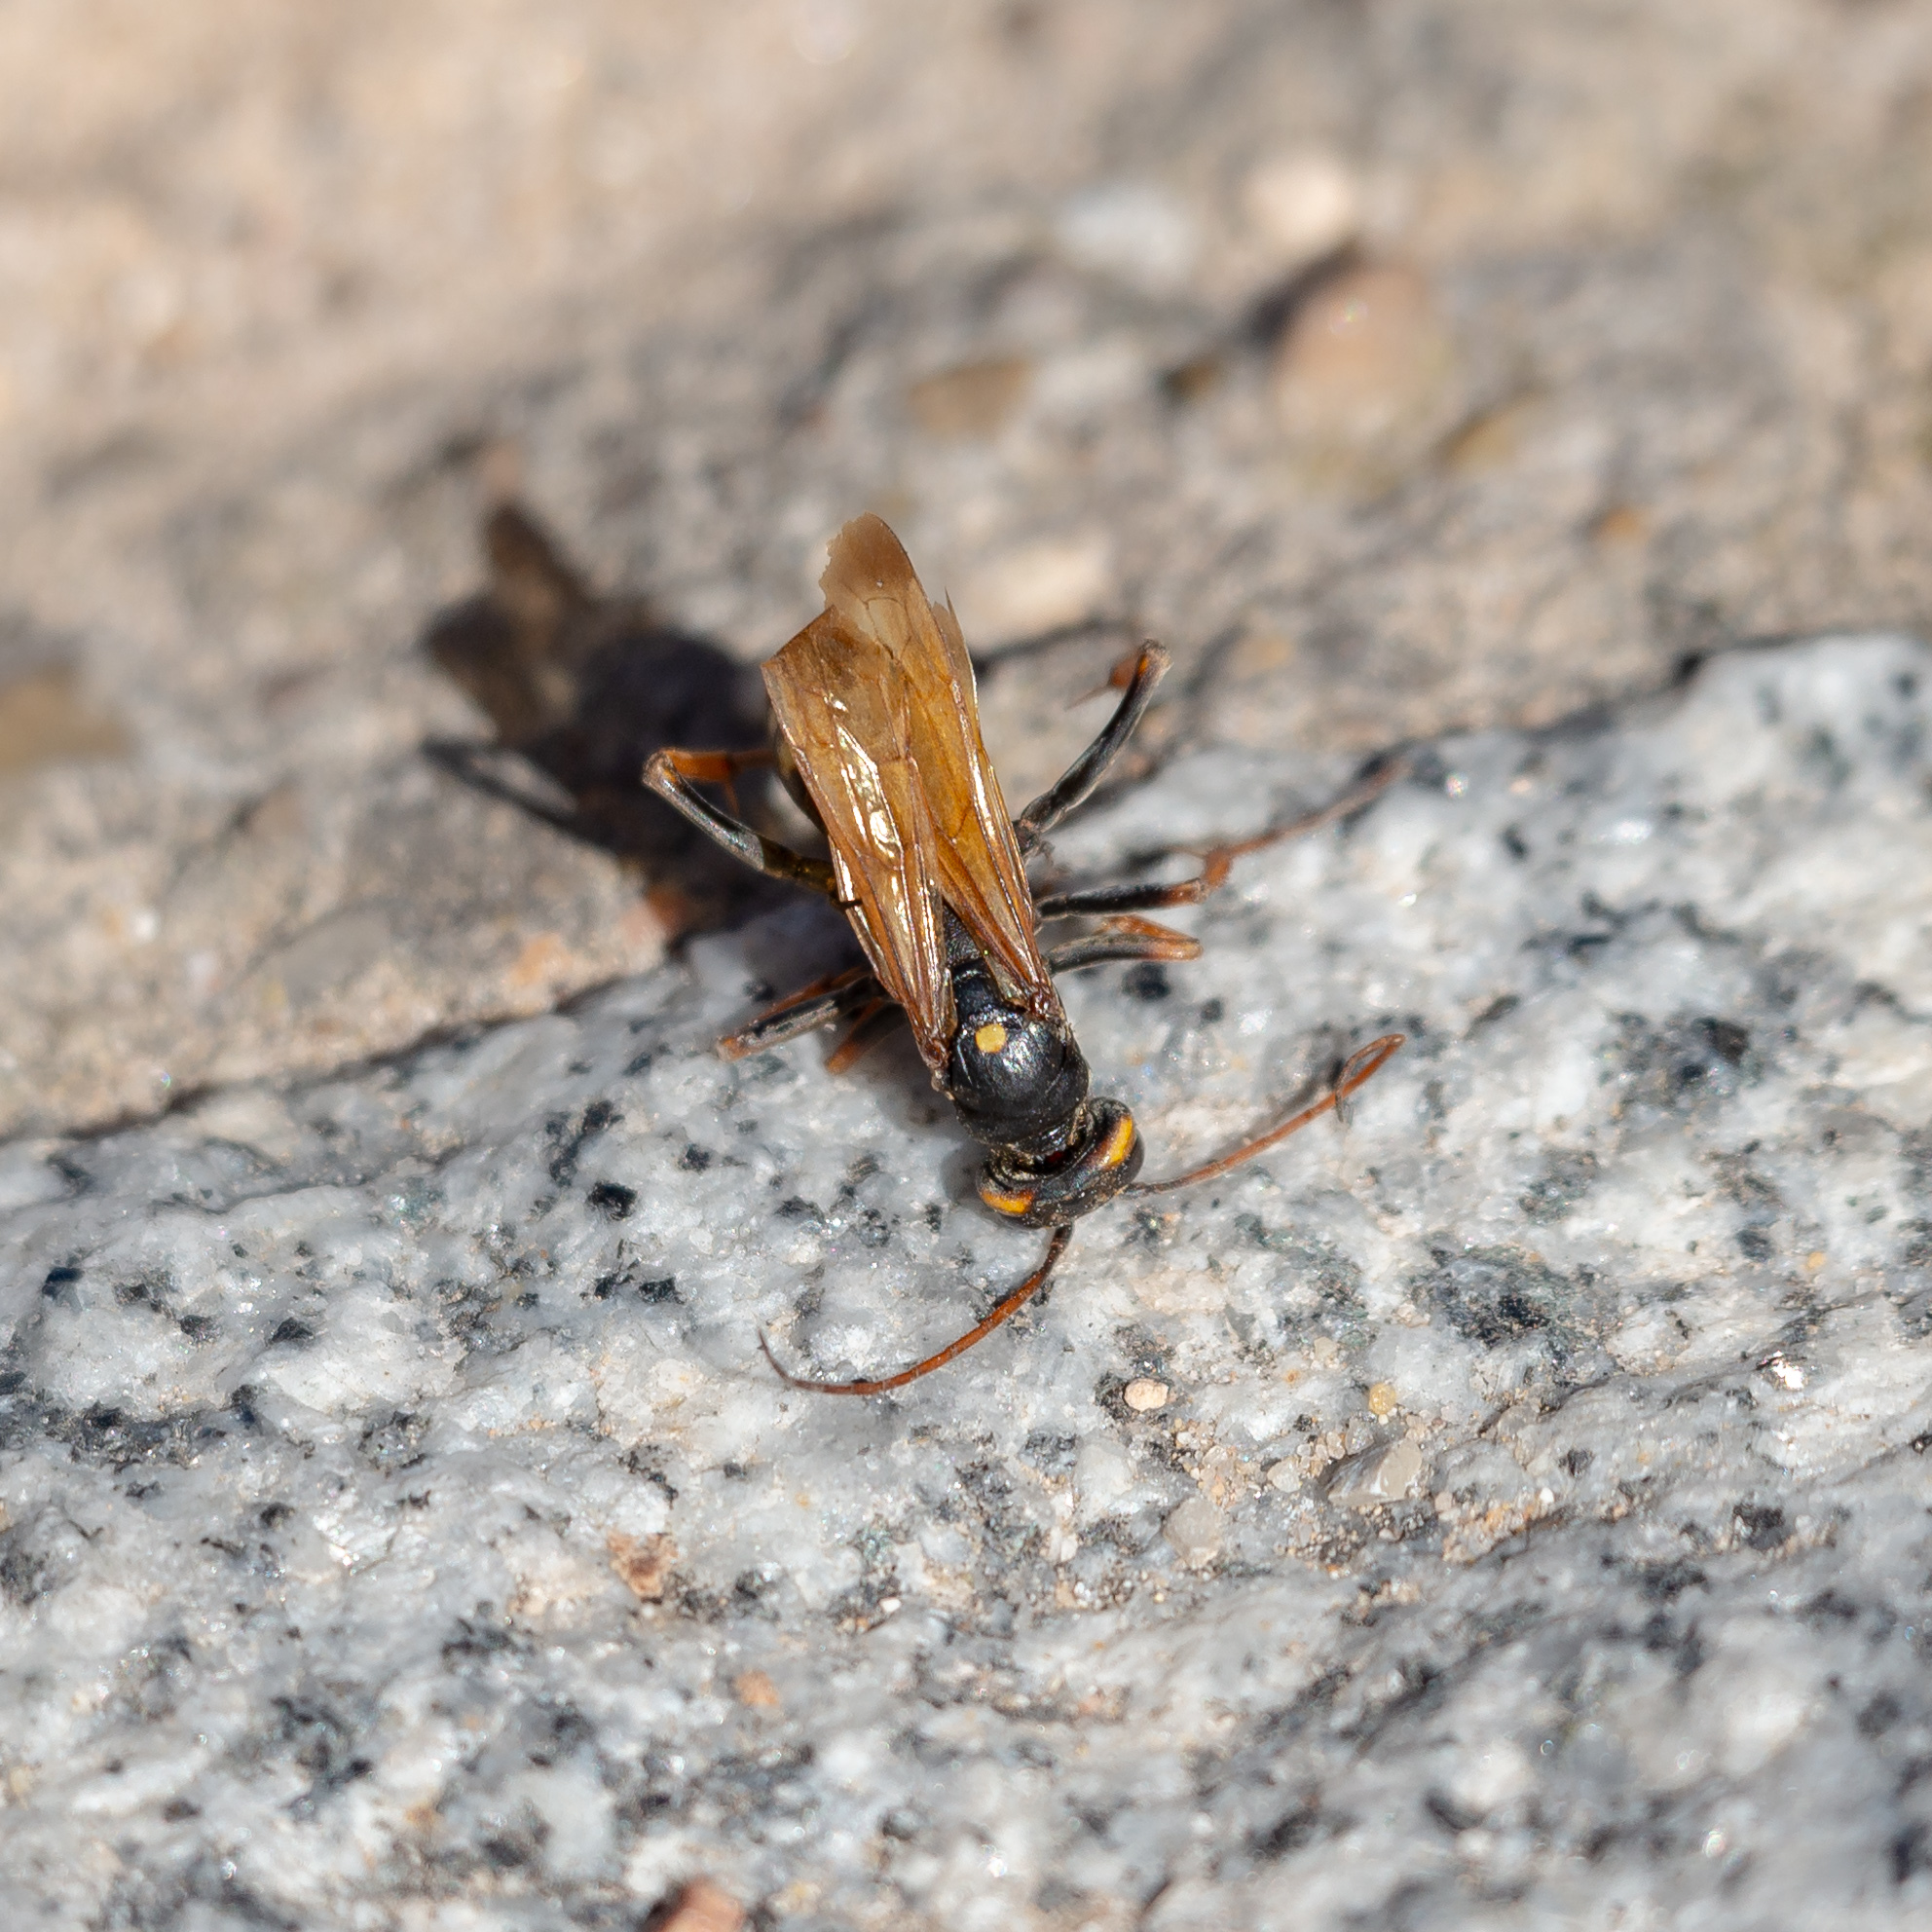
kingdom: Animalia
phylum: Arthropoda
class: Insecta
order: Hymenoptera
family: Pompilidae
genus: Cryptocheilus
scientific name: Cryptocheilus octomaculatus
